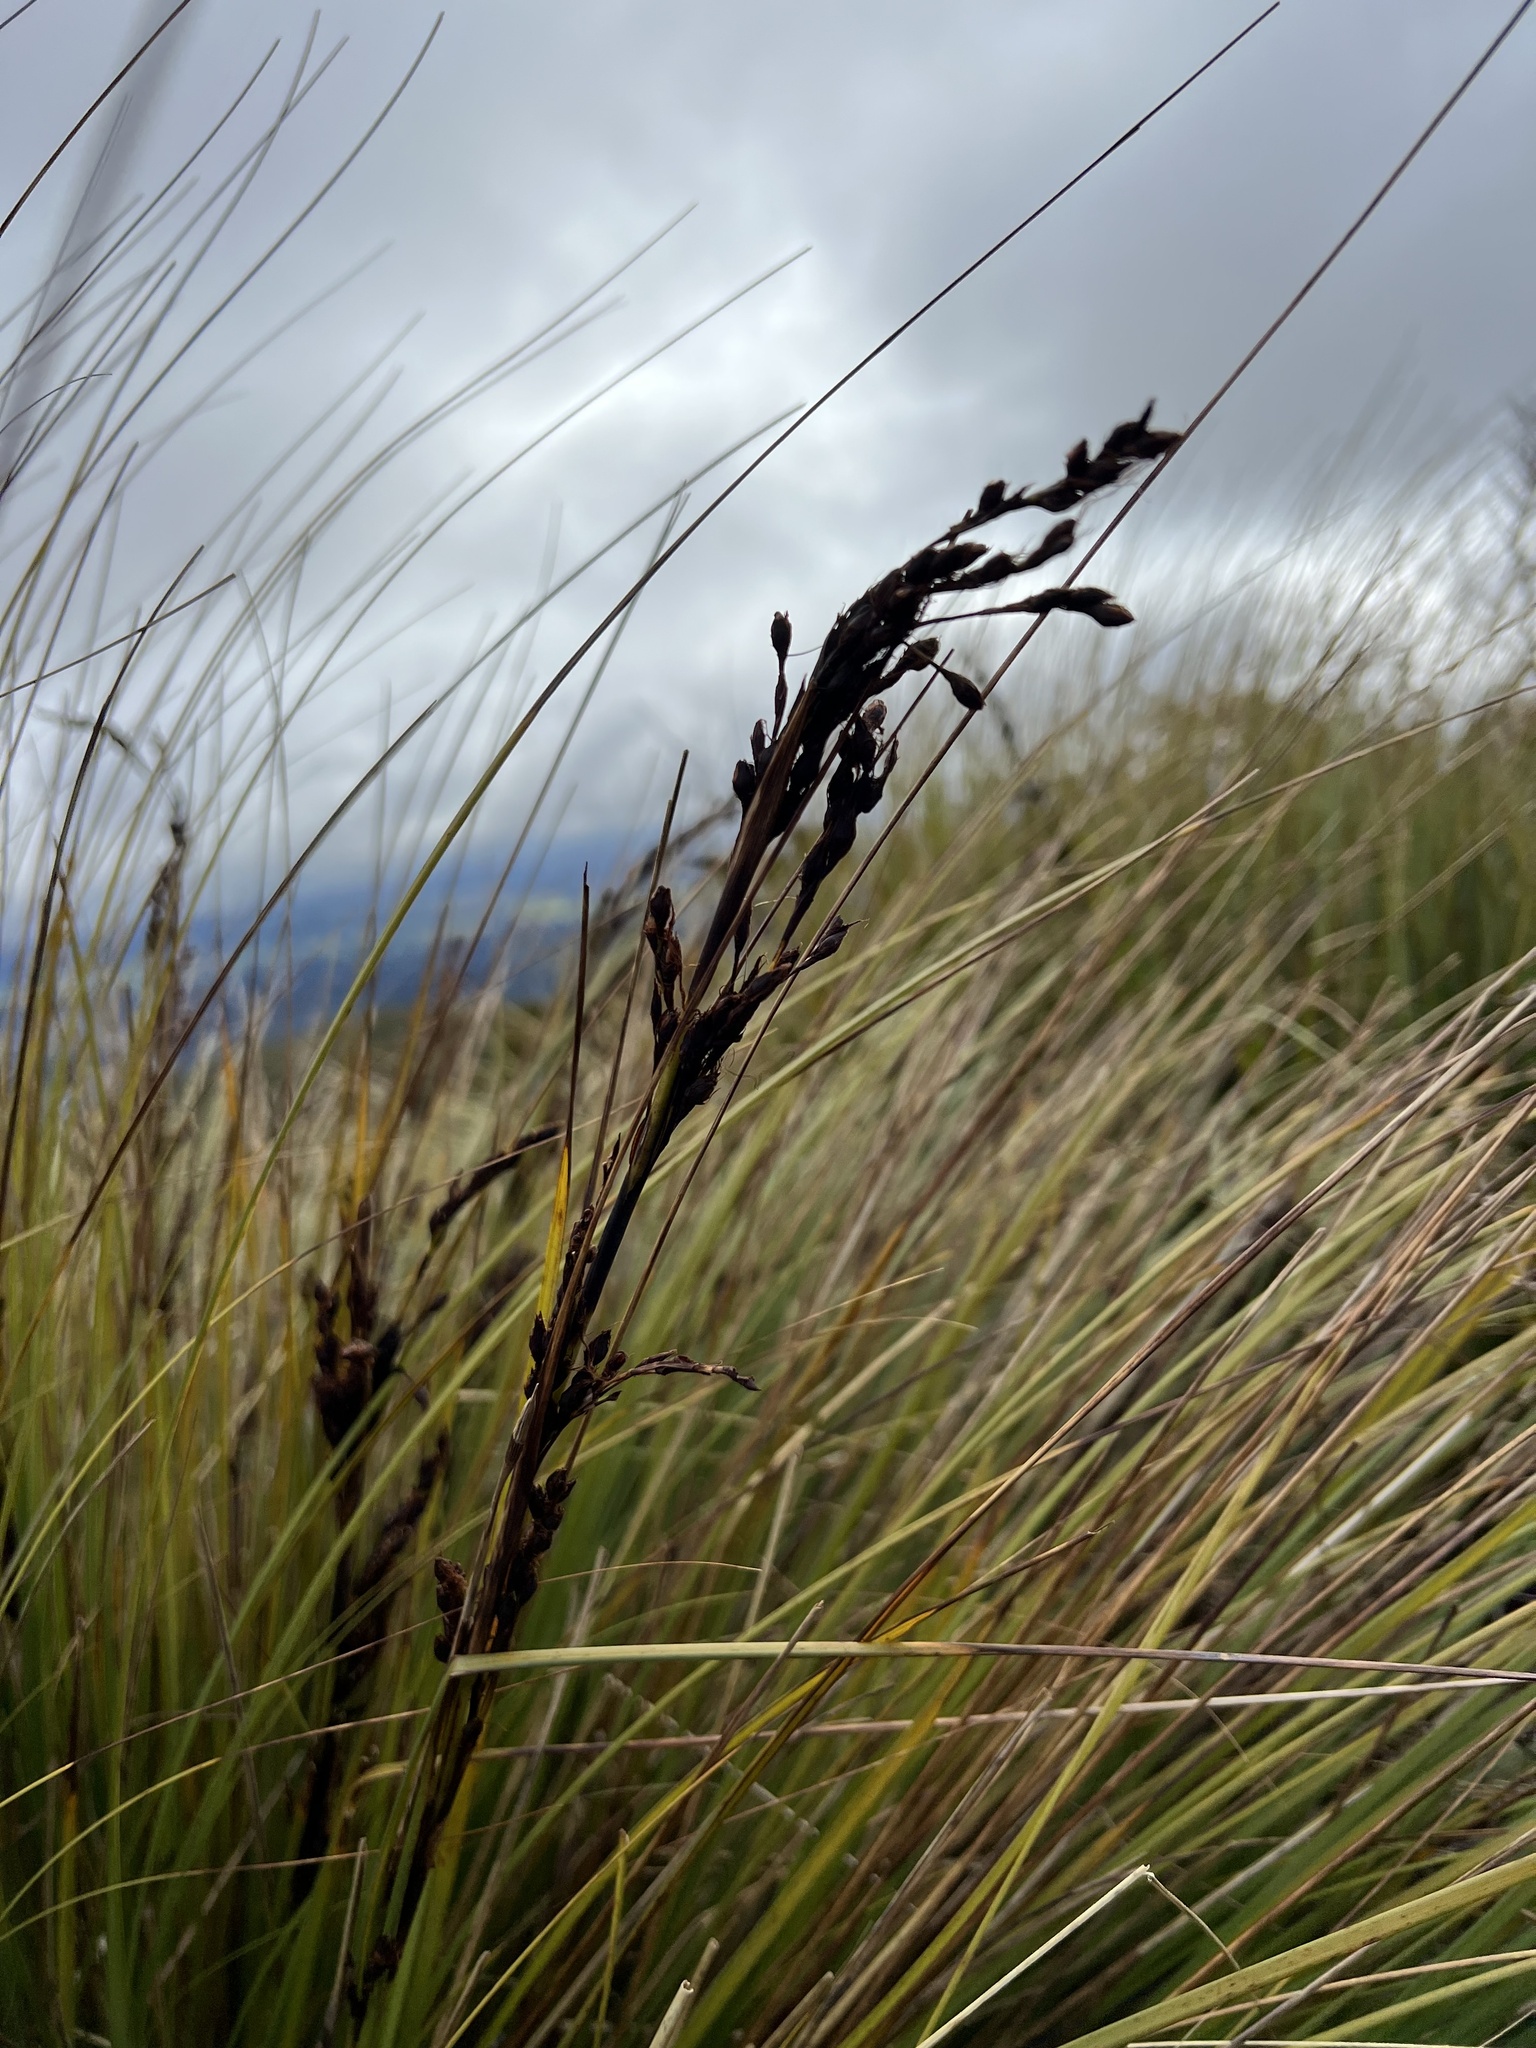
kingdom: Plantae
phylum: Tracheophyta
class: Liliopsida
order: Poales
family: Cyperaceae
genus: Gahnia
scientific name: Gahnia procera
